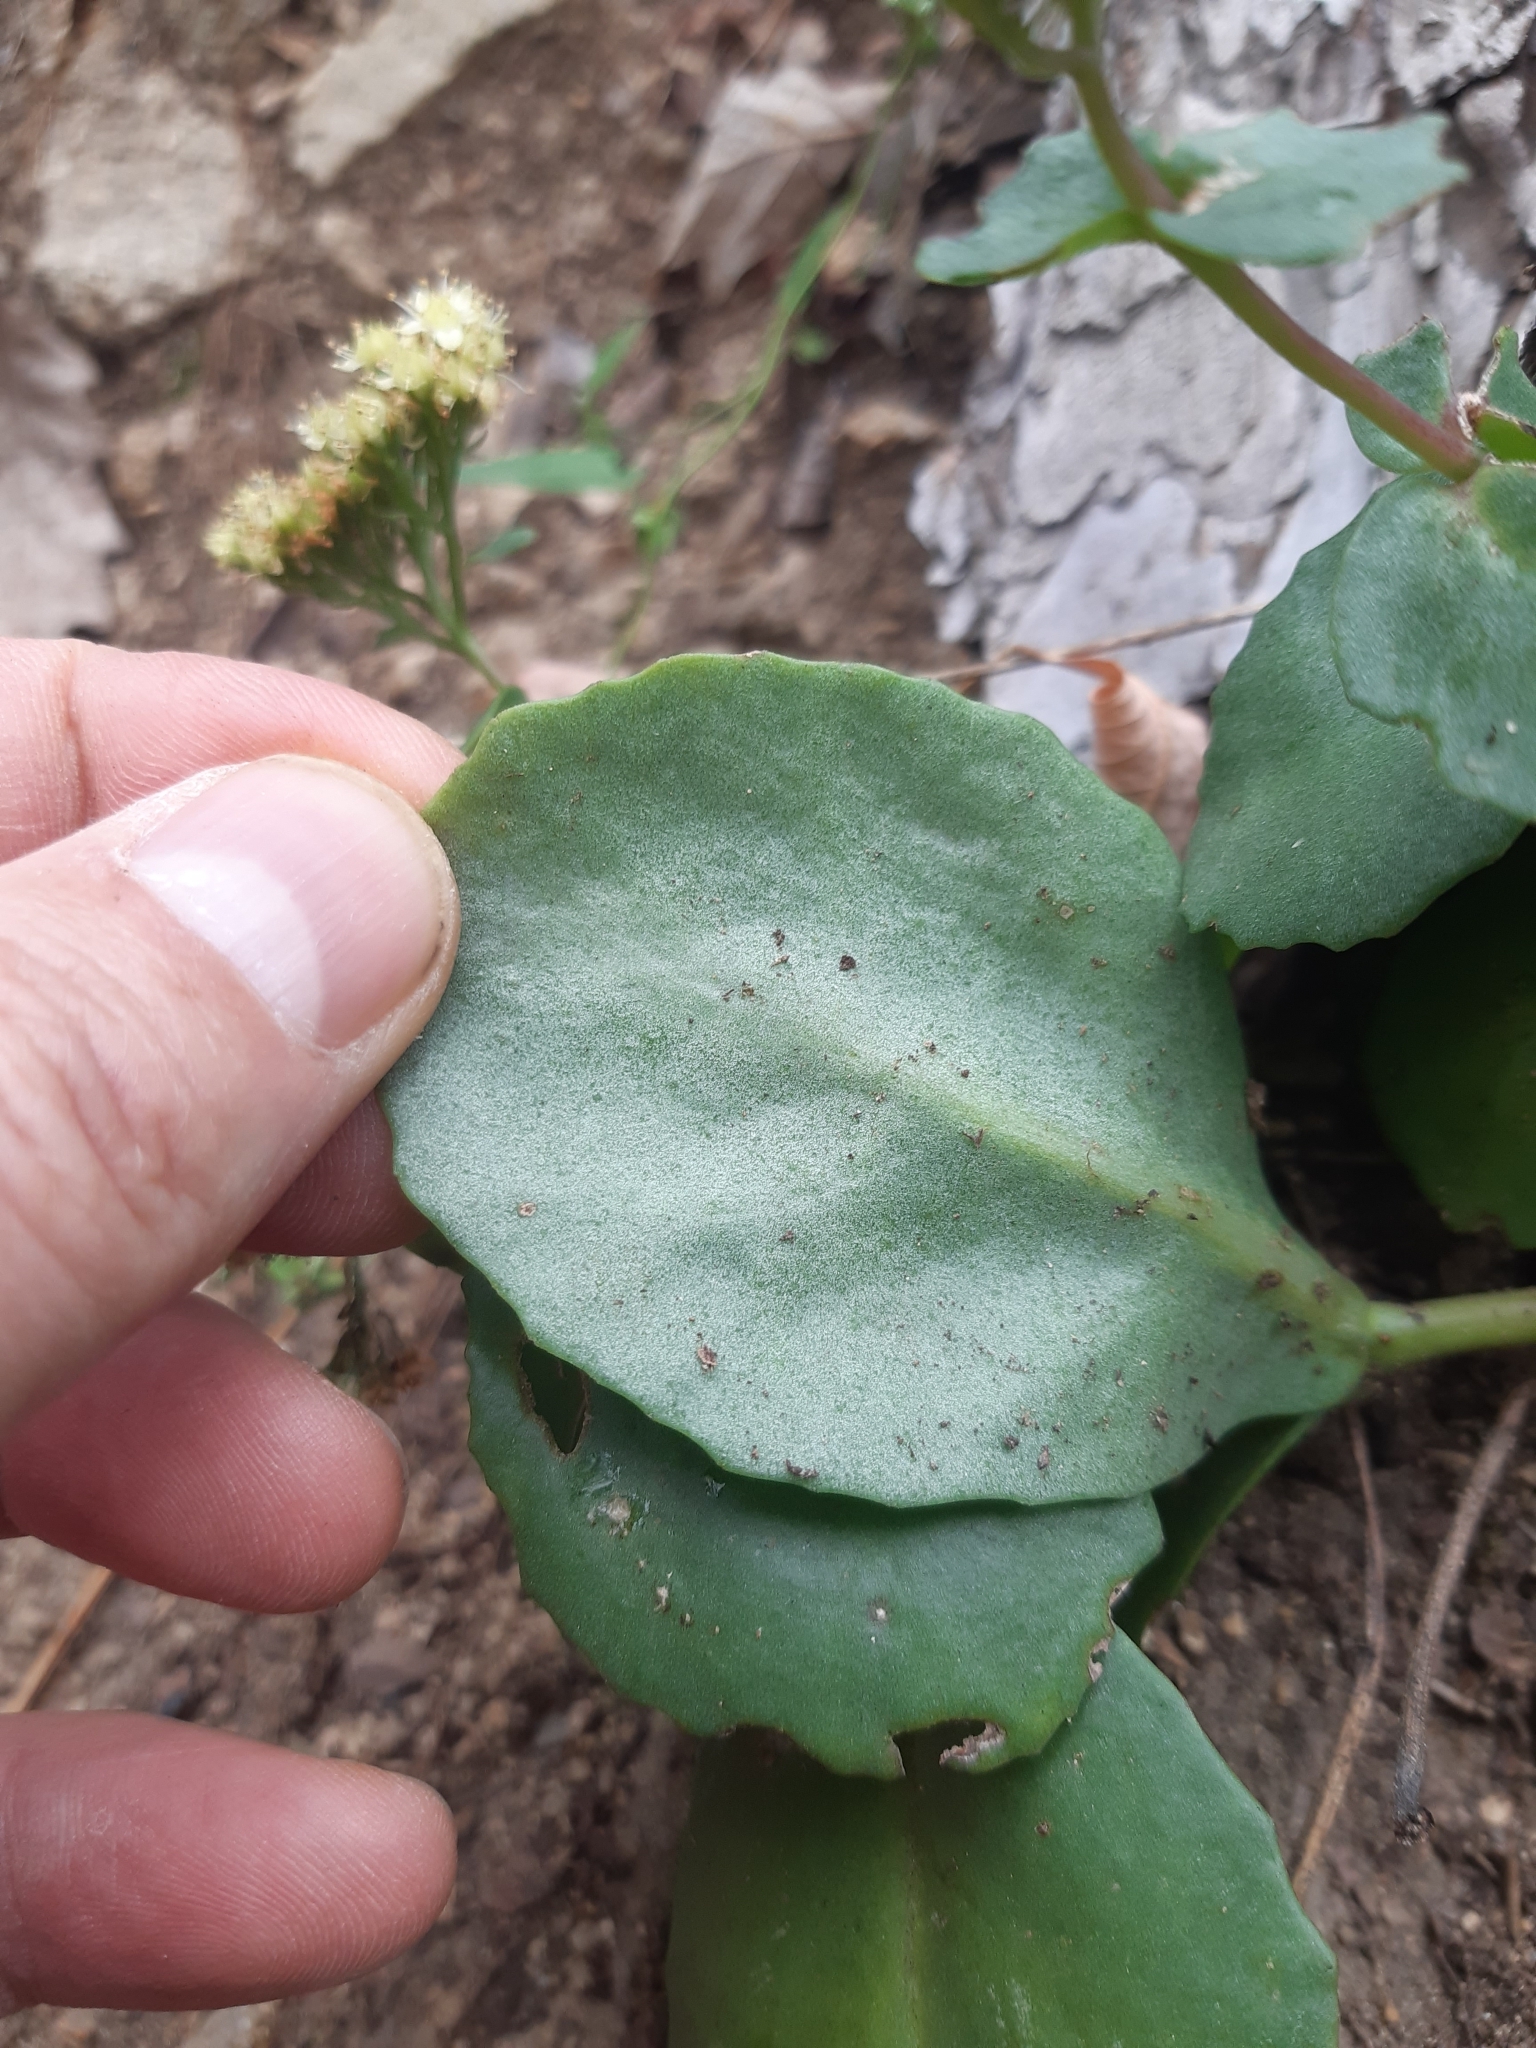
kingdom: Plantae
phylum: Tracheophyta
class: Magnoliopsida
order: Saxifragales
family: Crassulaceae
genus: Hylotelephium
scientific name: Hylotelephium maximum
